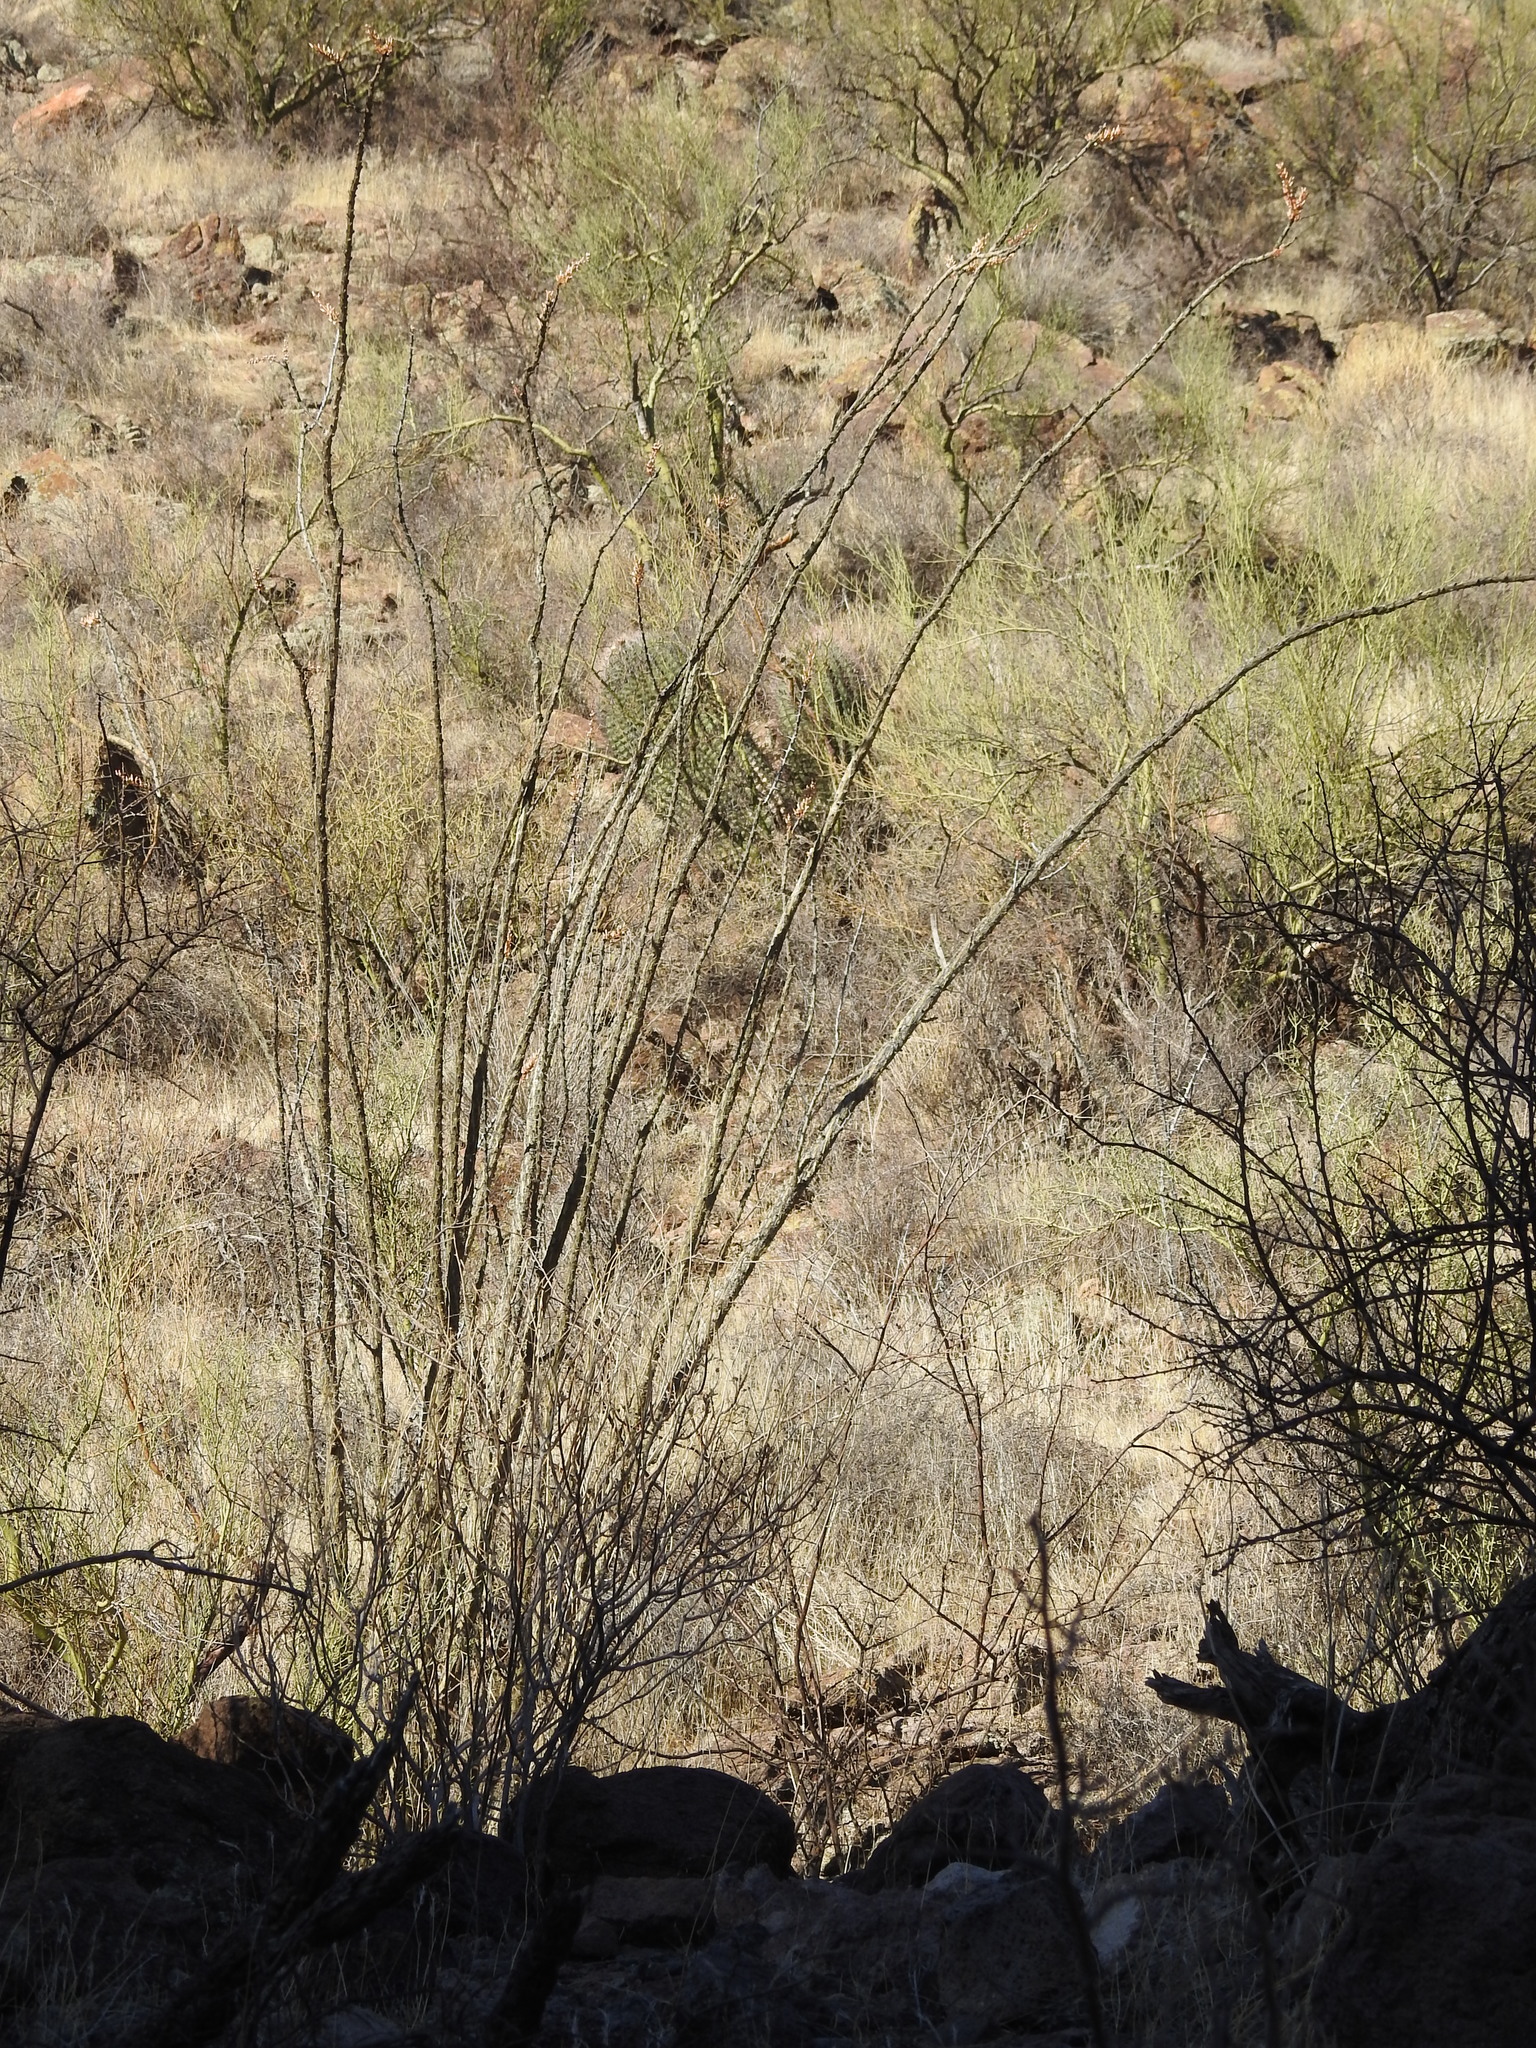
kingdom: Plantae
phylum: Tracheophyta
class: Magnoliopsida
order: Ericales
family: Fouquieriaceae
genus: Fouquieria
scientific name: Fouquieria splendens
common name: Vine-cactus
